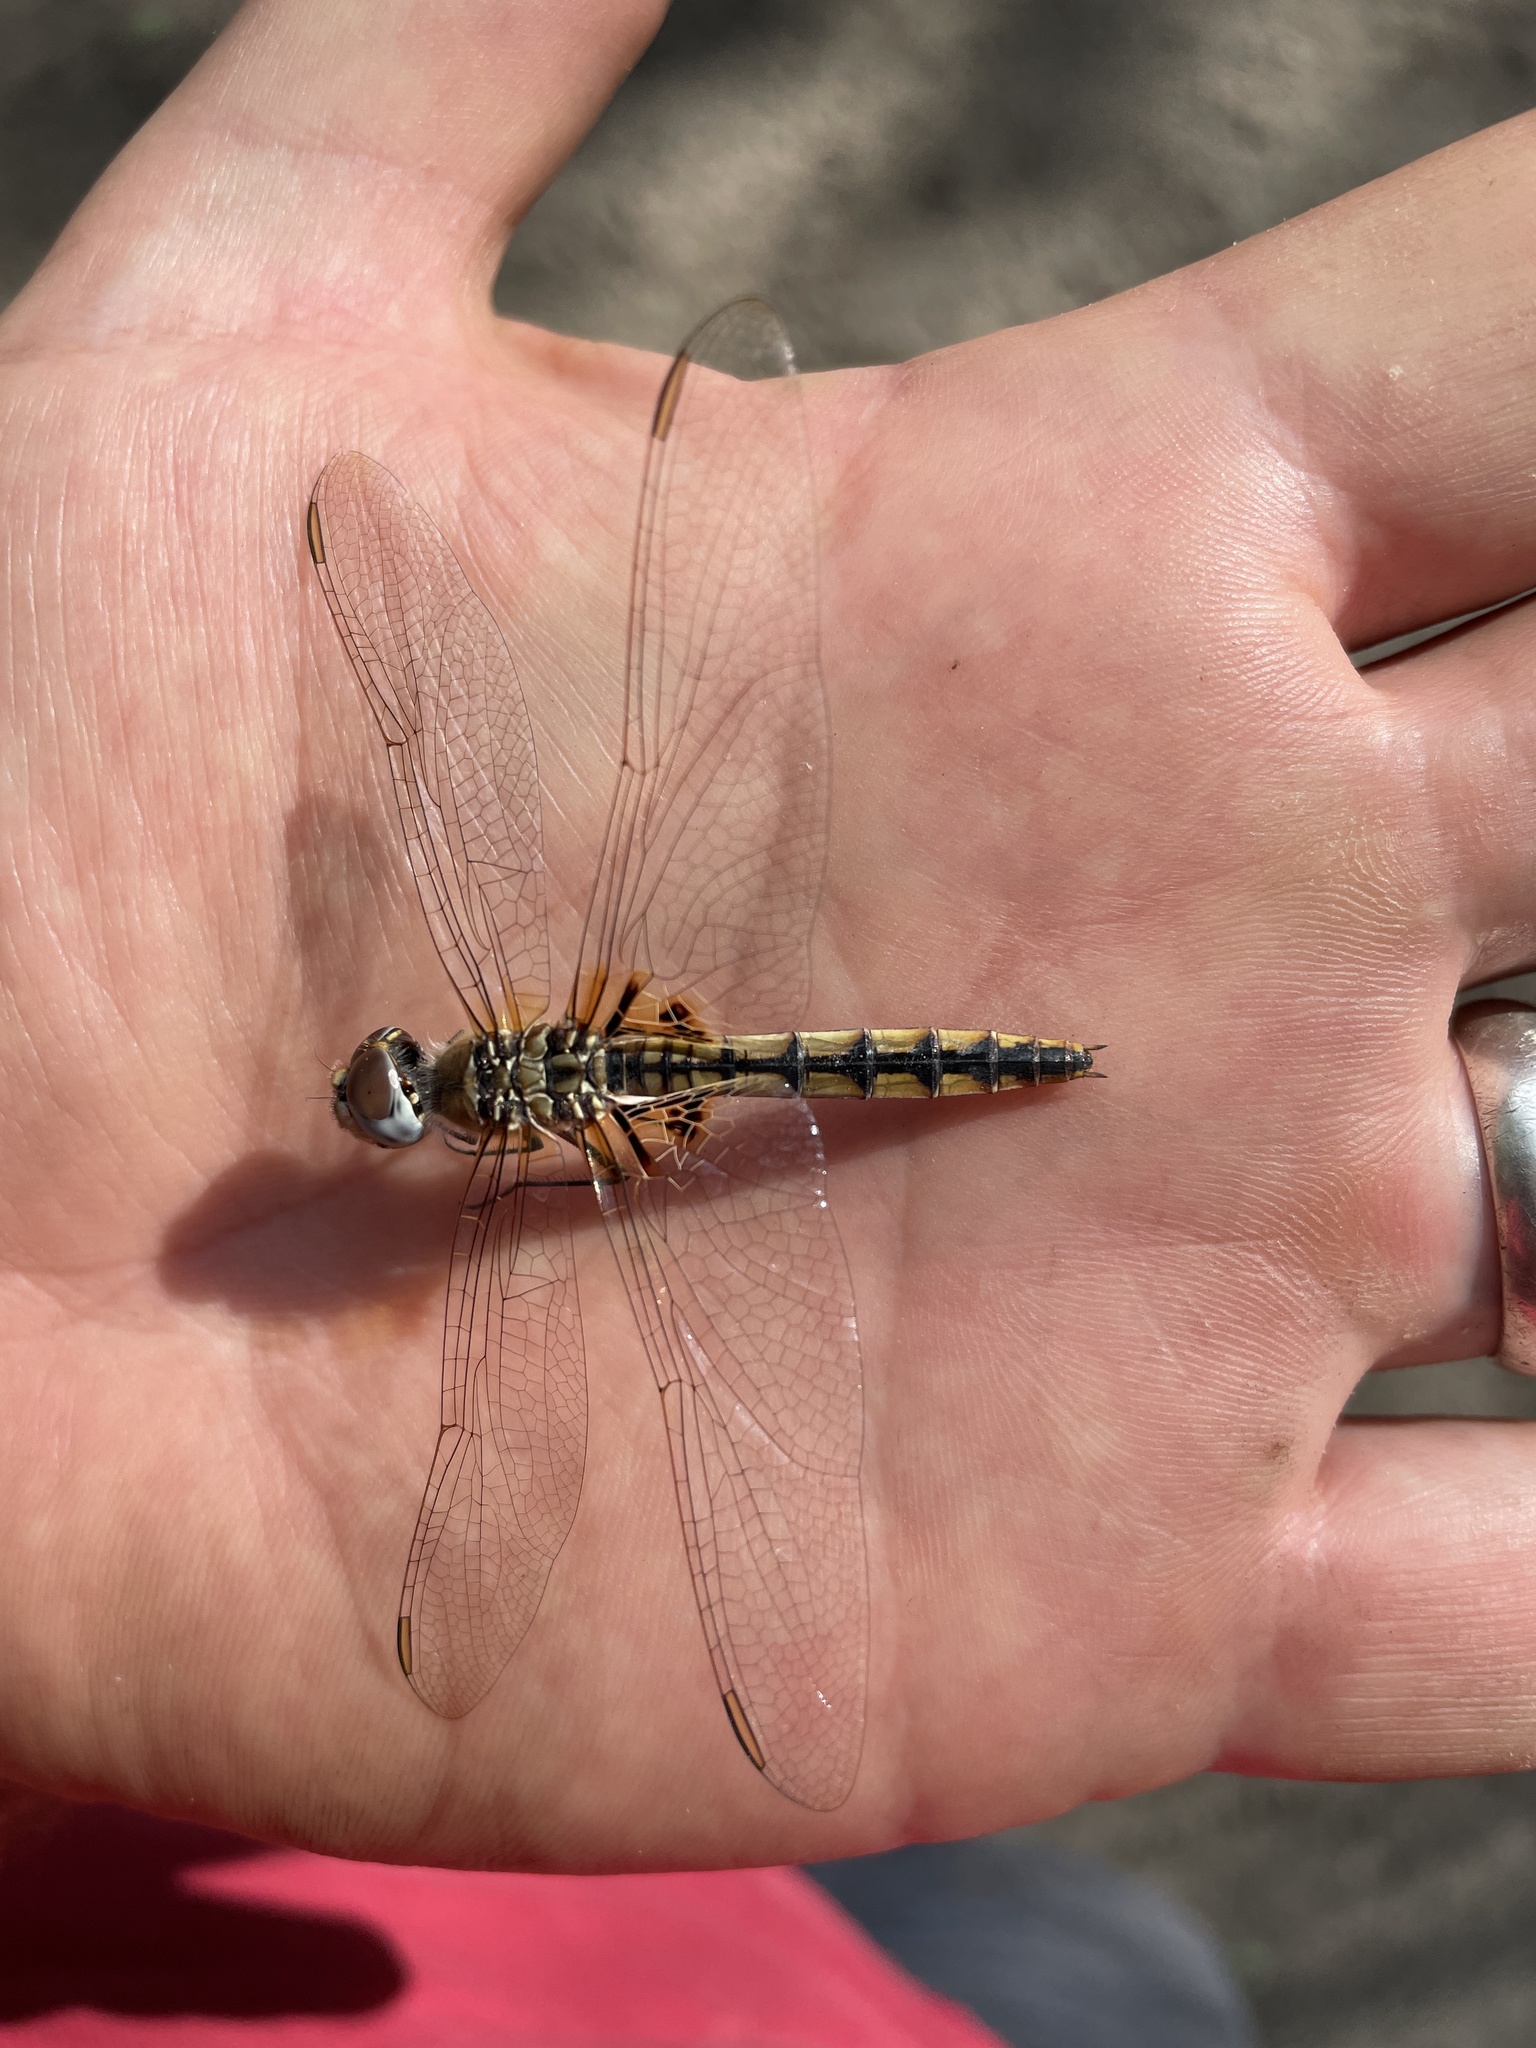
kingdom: Animalia
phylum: Arthropoda
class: Insecta
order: Odonata
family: Libellulidae
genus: Urothemis
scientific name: Urothemis edwardsii
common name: Blue basker
